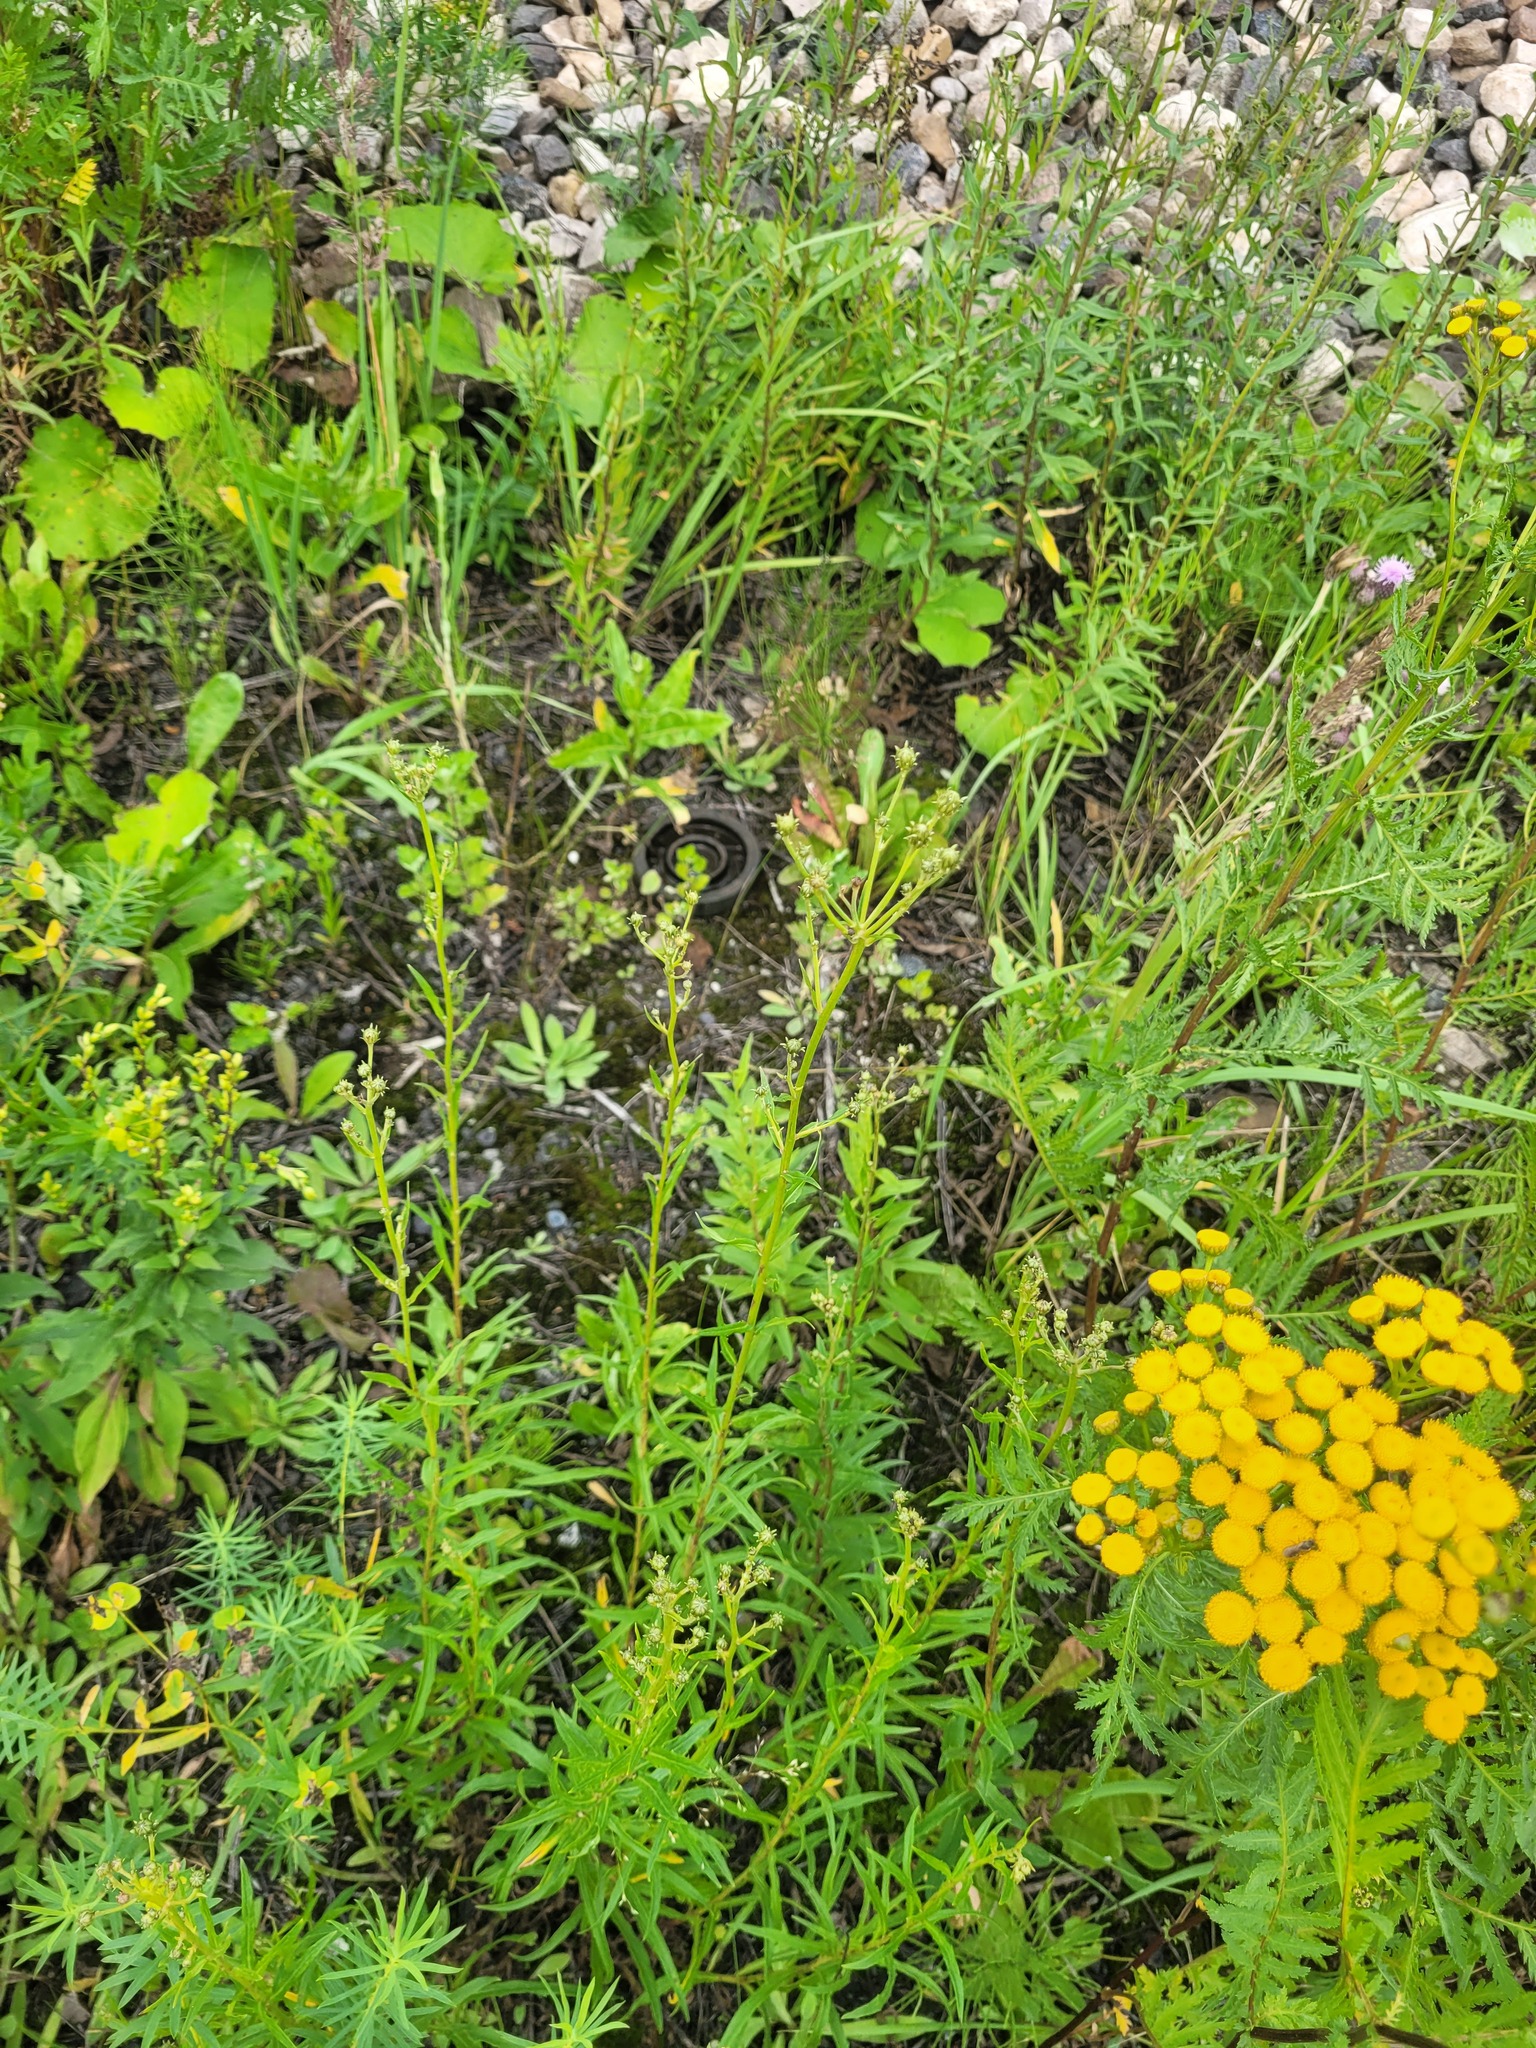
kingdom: Plantae
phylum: Tracheophyta
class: Magnoliopsida
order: Asterales
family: Asteraceae
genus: Hieracium
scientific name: Hieracium umbellatum
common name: Northern hawkweed
